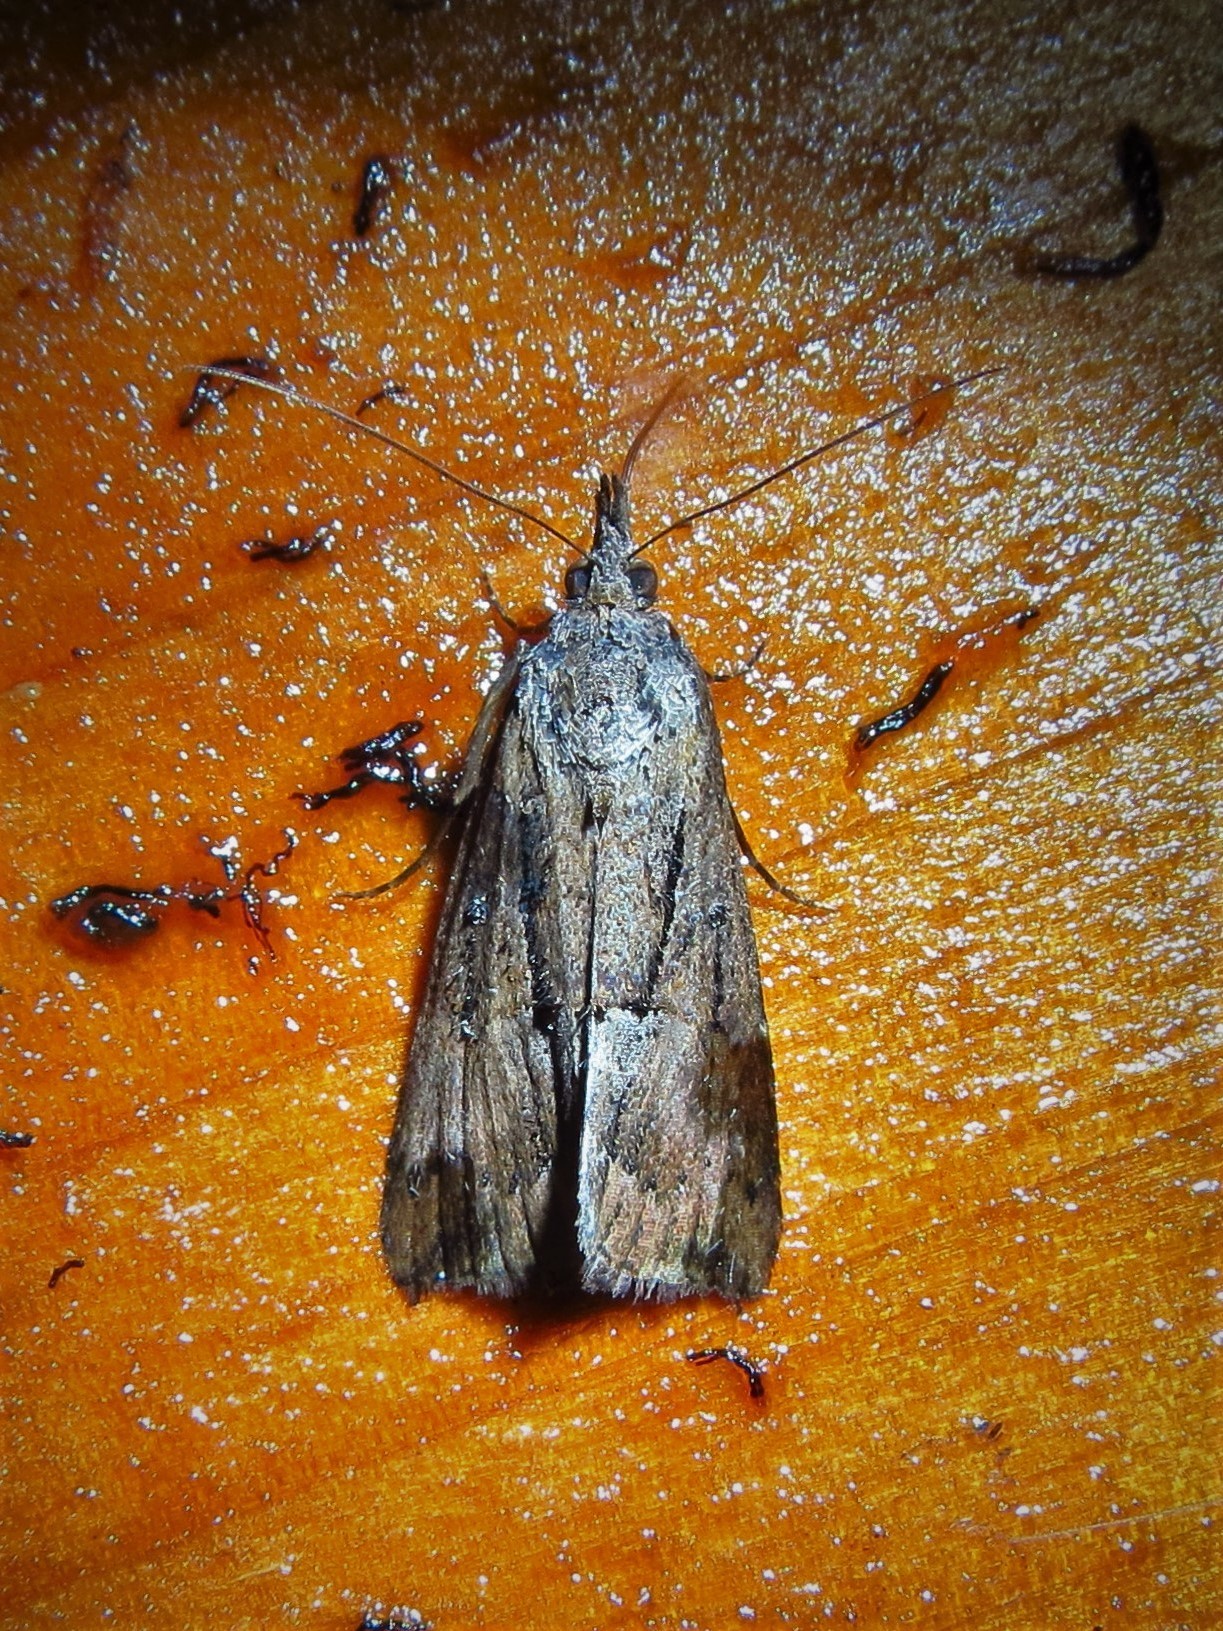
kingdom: Animalia
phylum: Arthropoda
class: Insecta
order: Lepidoptera
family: Erebidae
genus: Hypena
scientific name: Hypena scabra
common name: Green cloverworm
